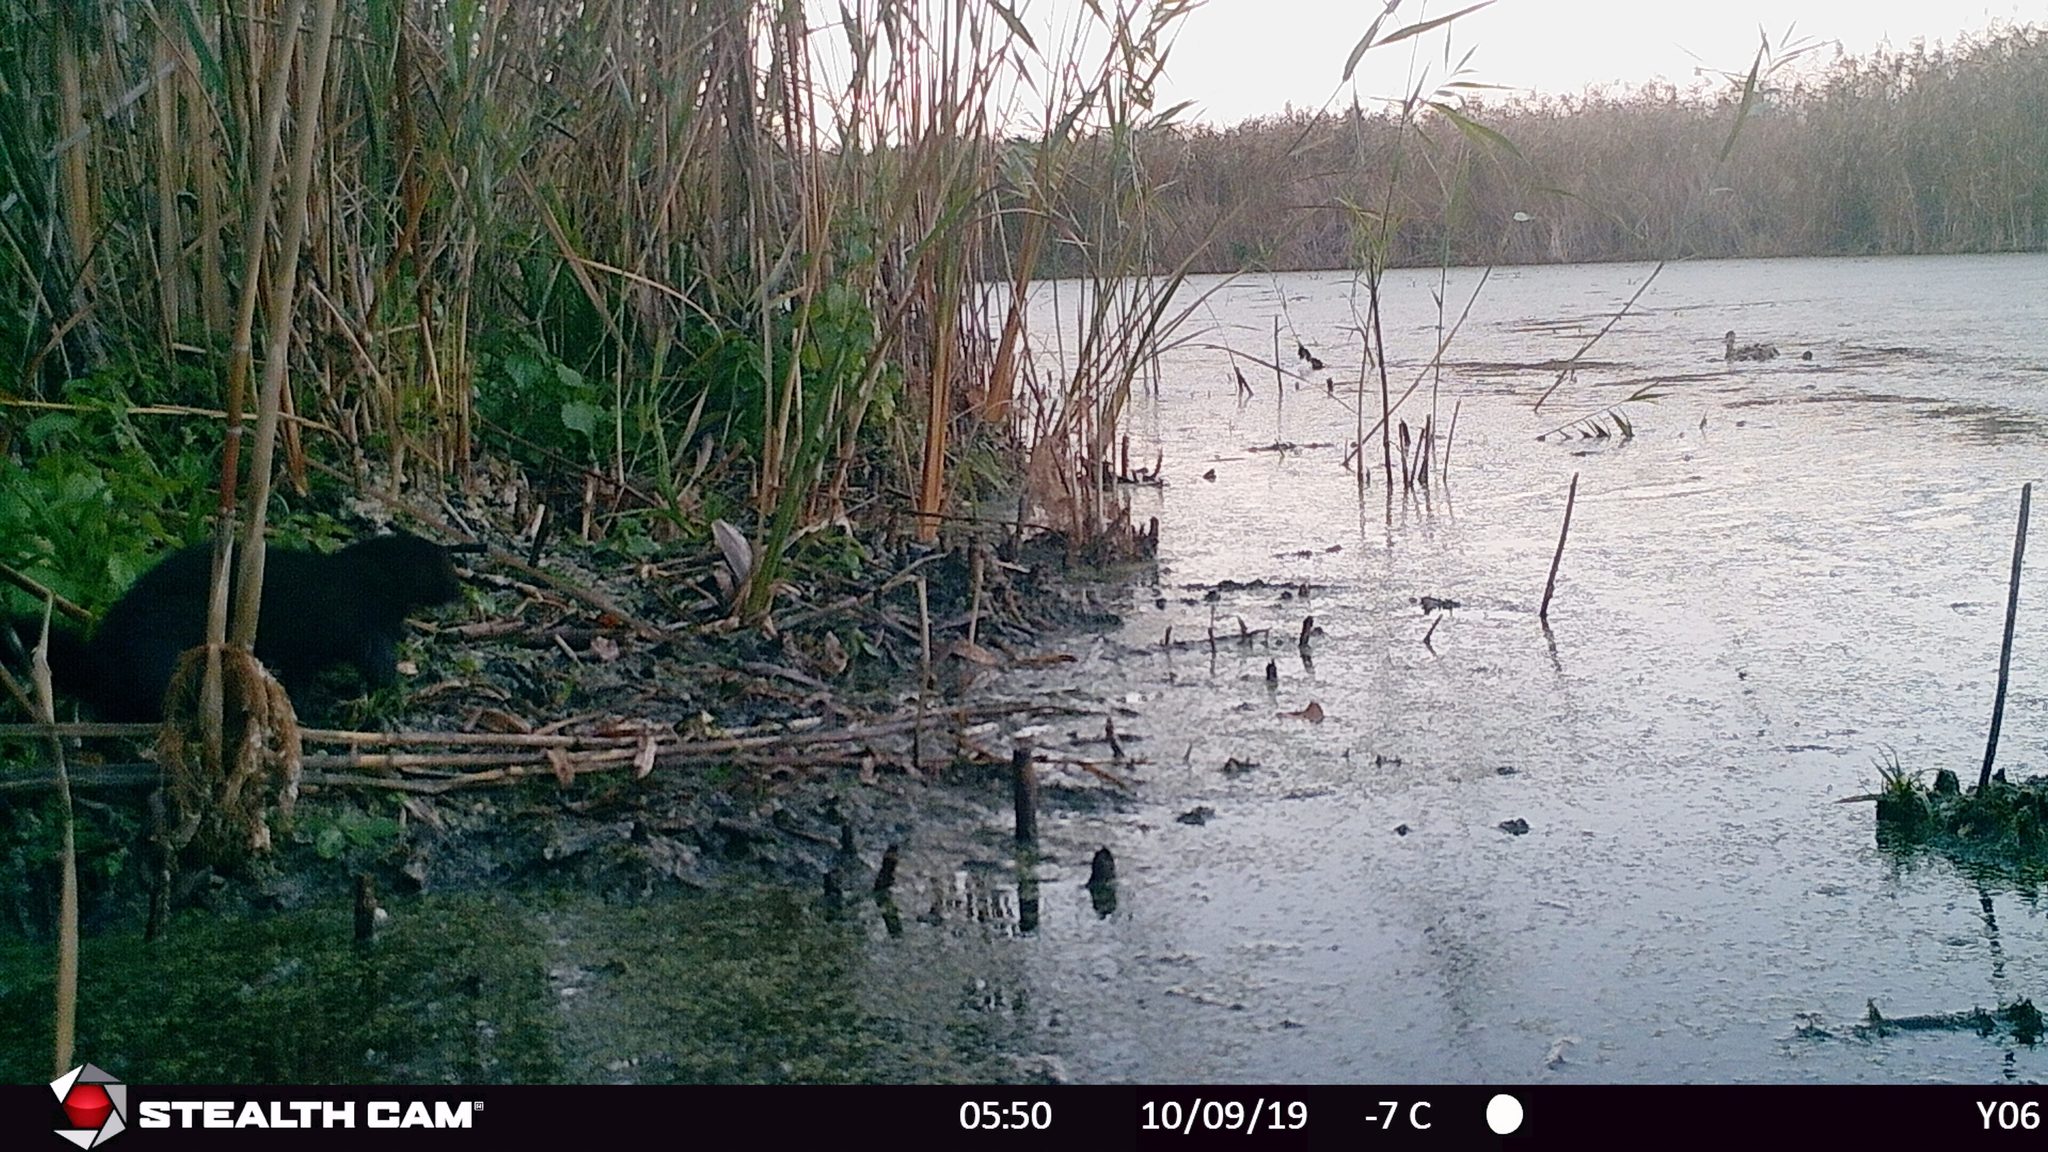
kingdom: Animalia
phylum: Chordata
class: Mammalia
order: Carnivora
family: Mustelidae
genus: Mustela
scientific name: Mustela
